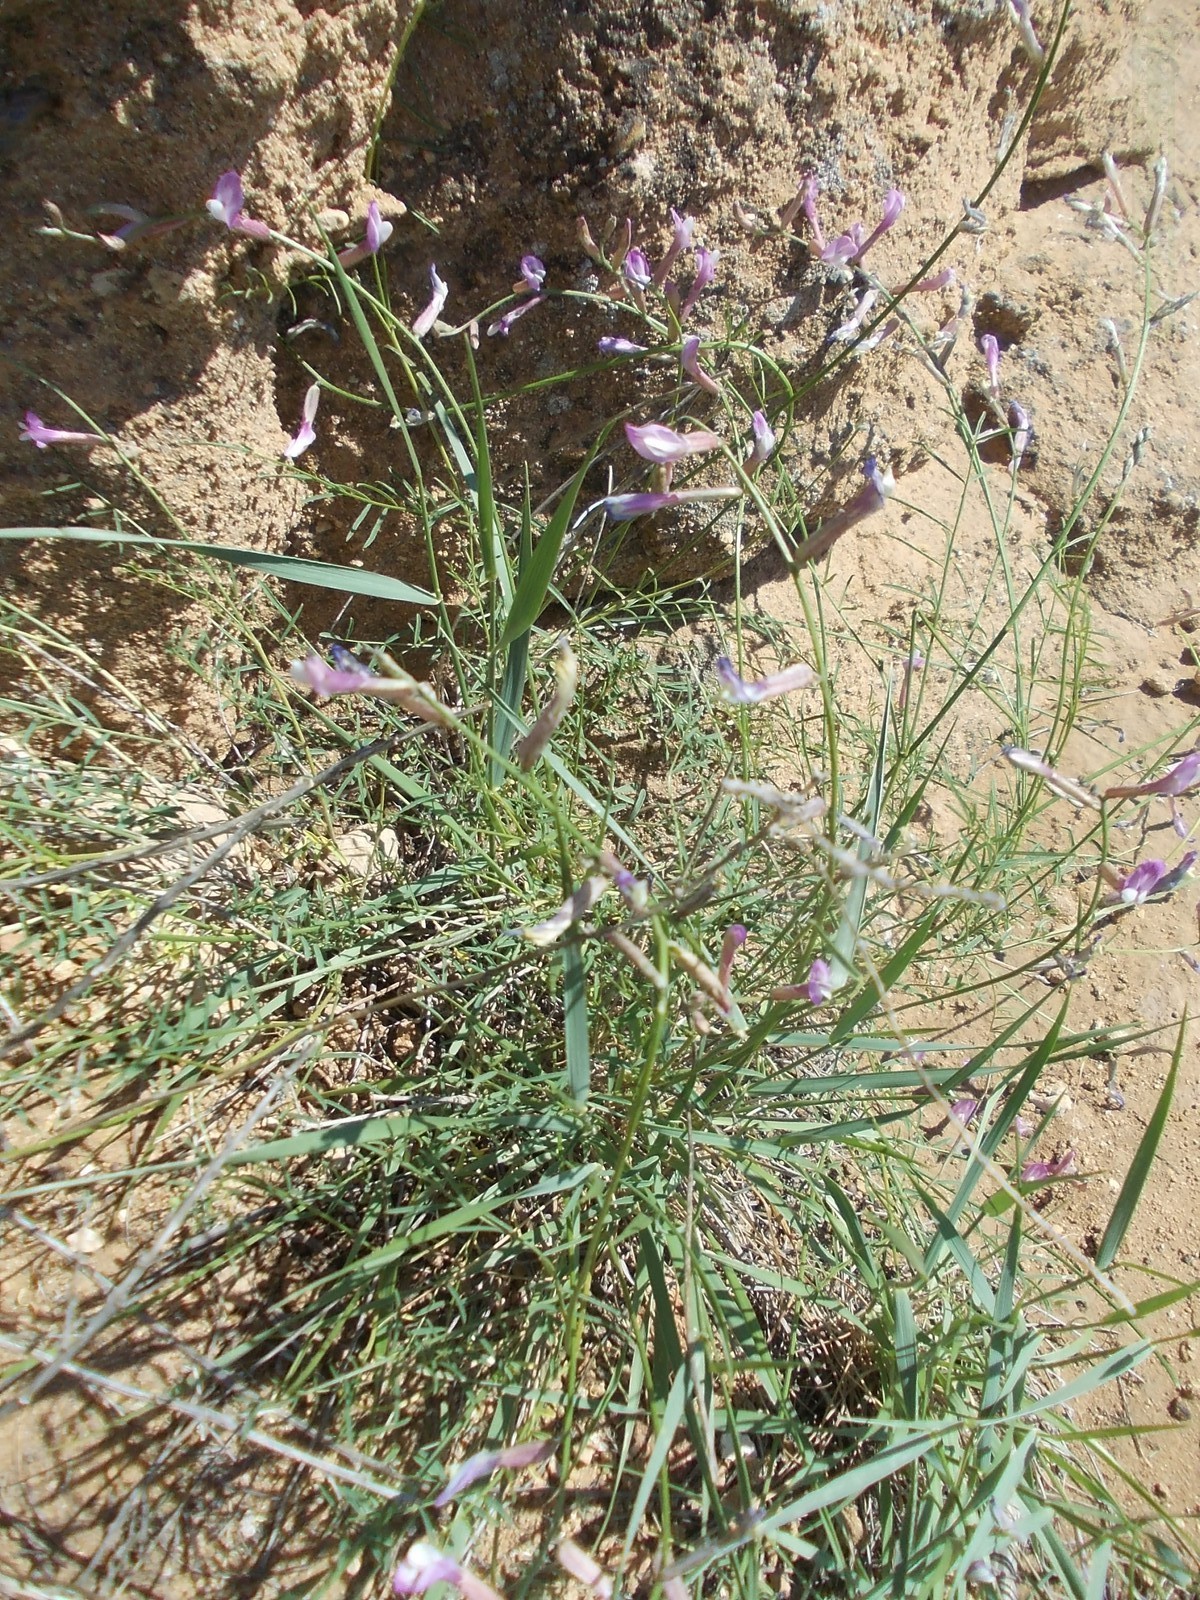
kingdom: Plantae
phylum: Tracheophyta
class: Magnoliopsida
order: Fabales
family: Fabaceae
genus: Astragalus
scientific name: Astragalus pseudotataricus
